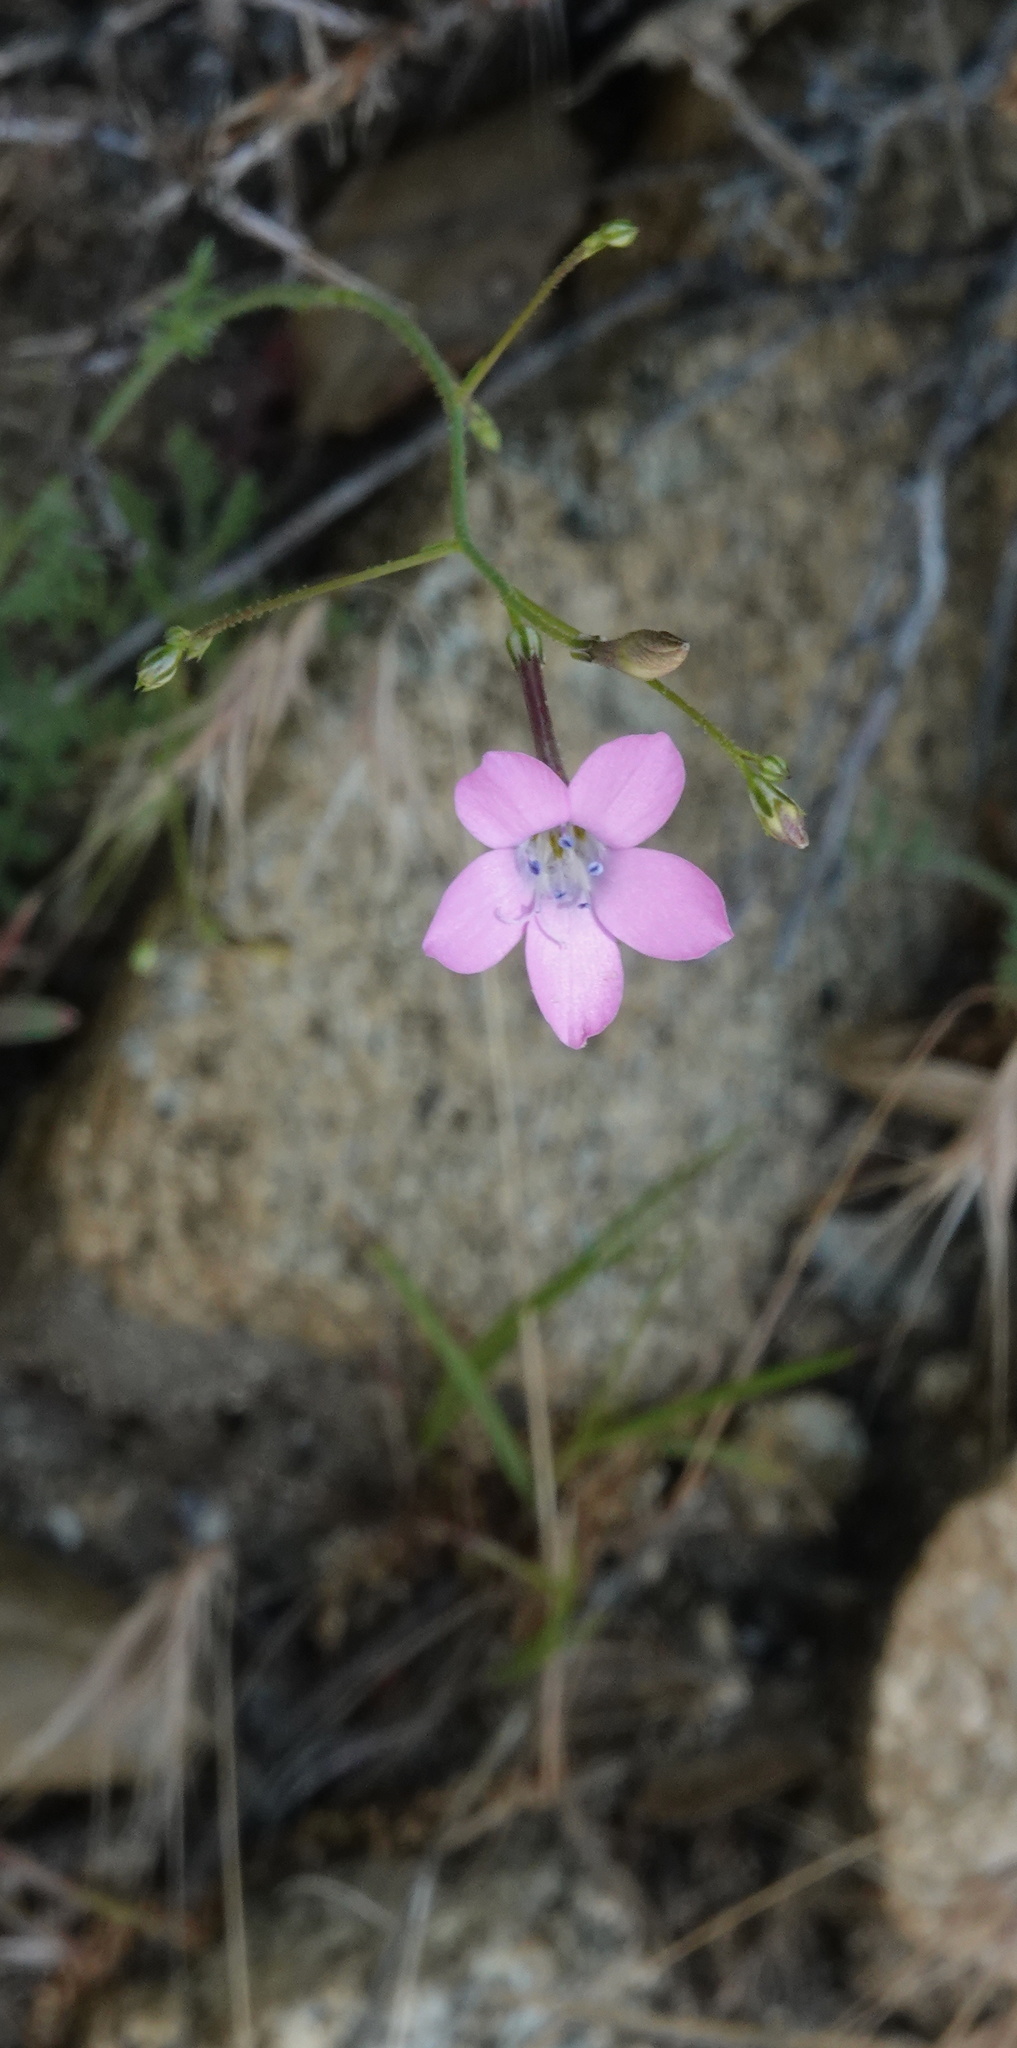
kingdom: Plantae
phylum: Tracheophyta
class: Magnoliopsida
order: Ericales
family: Polemoniaceae
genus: Saltugilia
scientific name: Saltugilia splendens
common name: Grinnell's gilia
